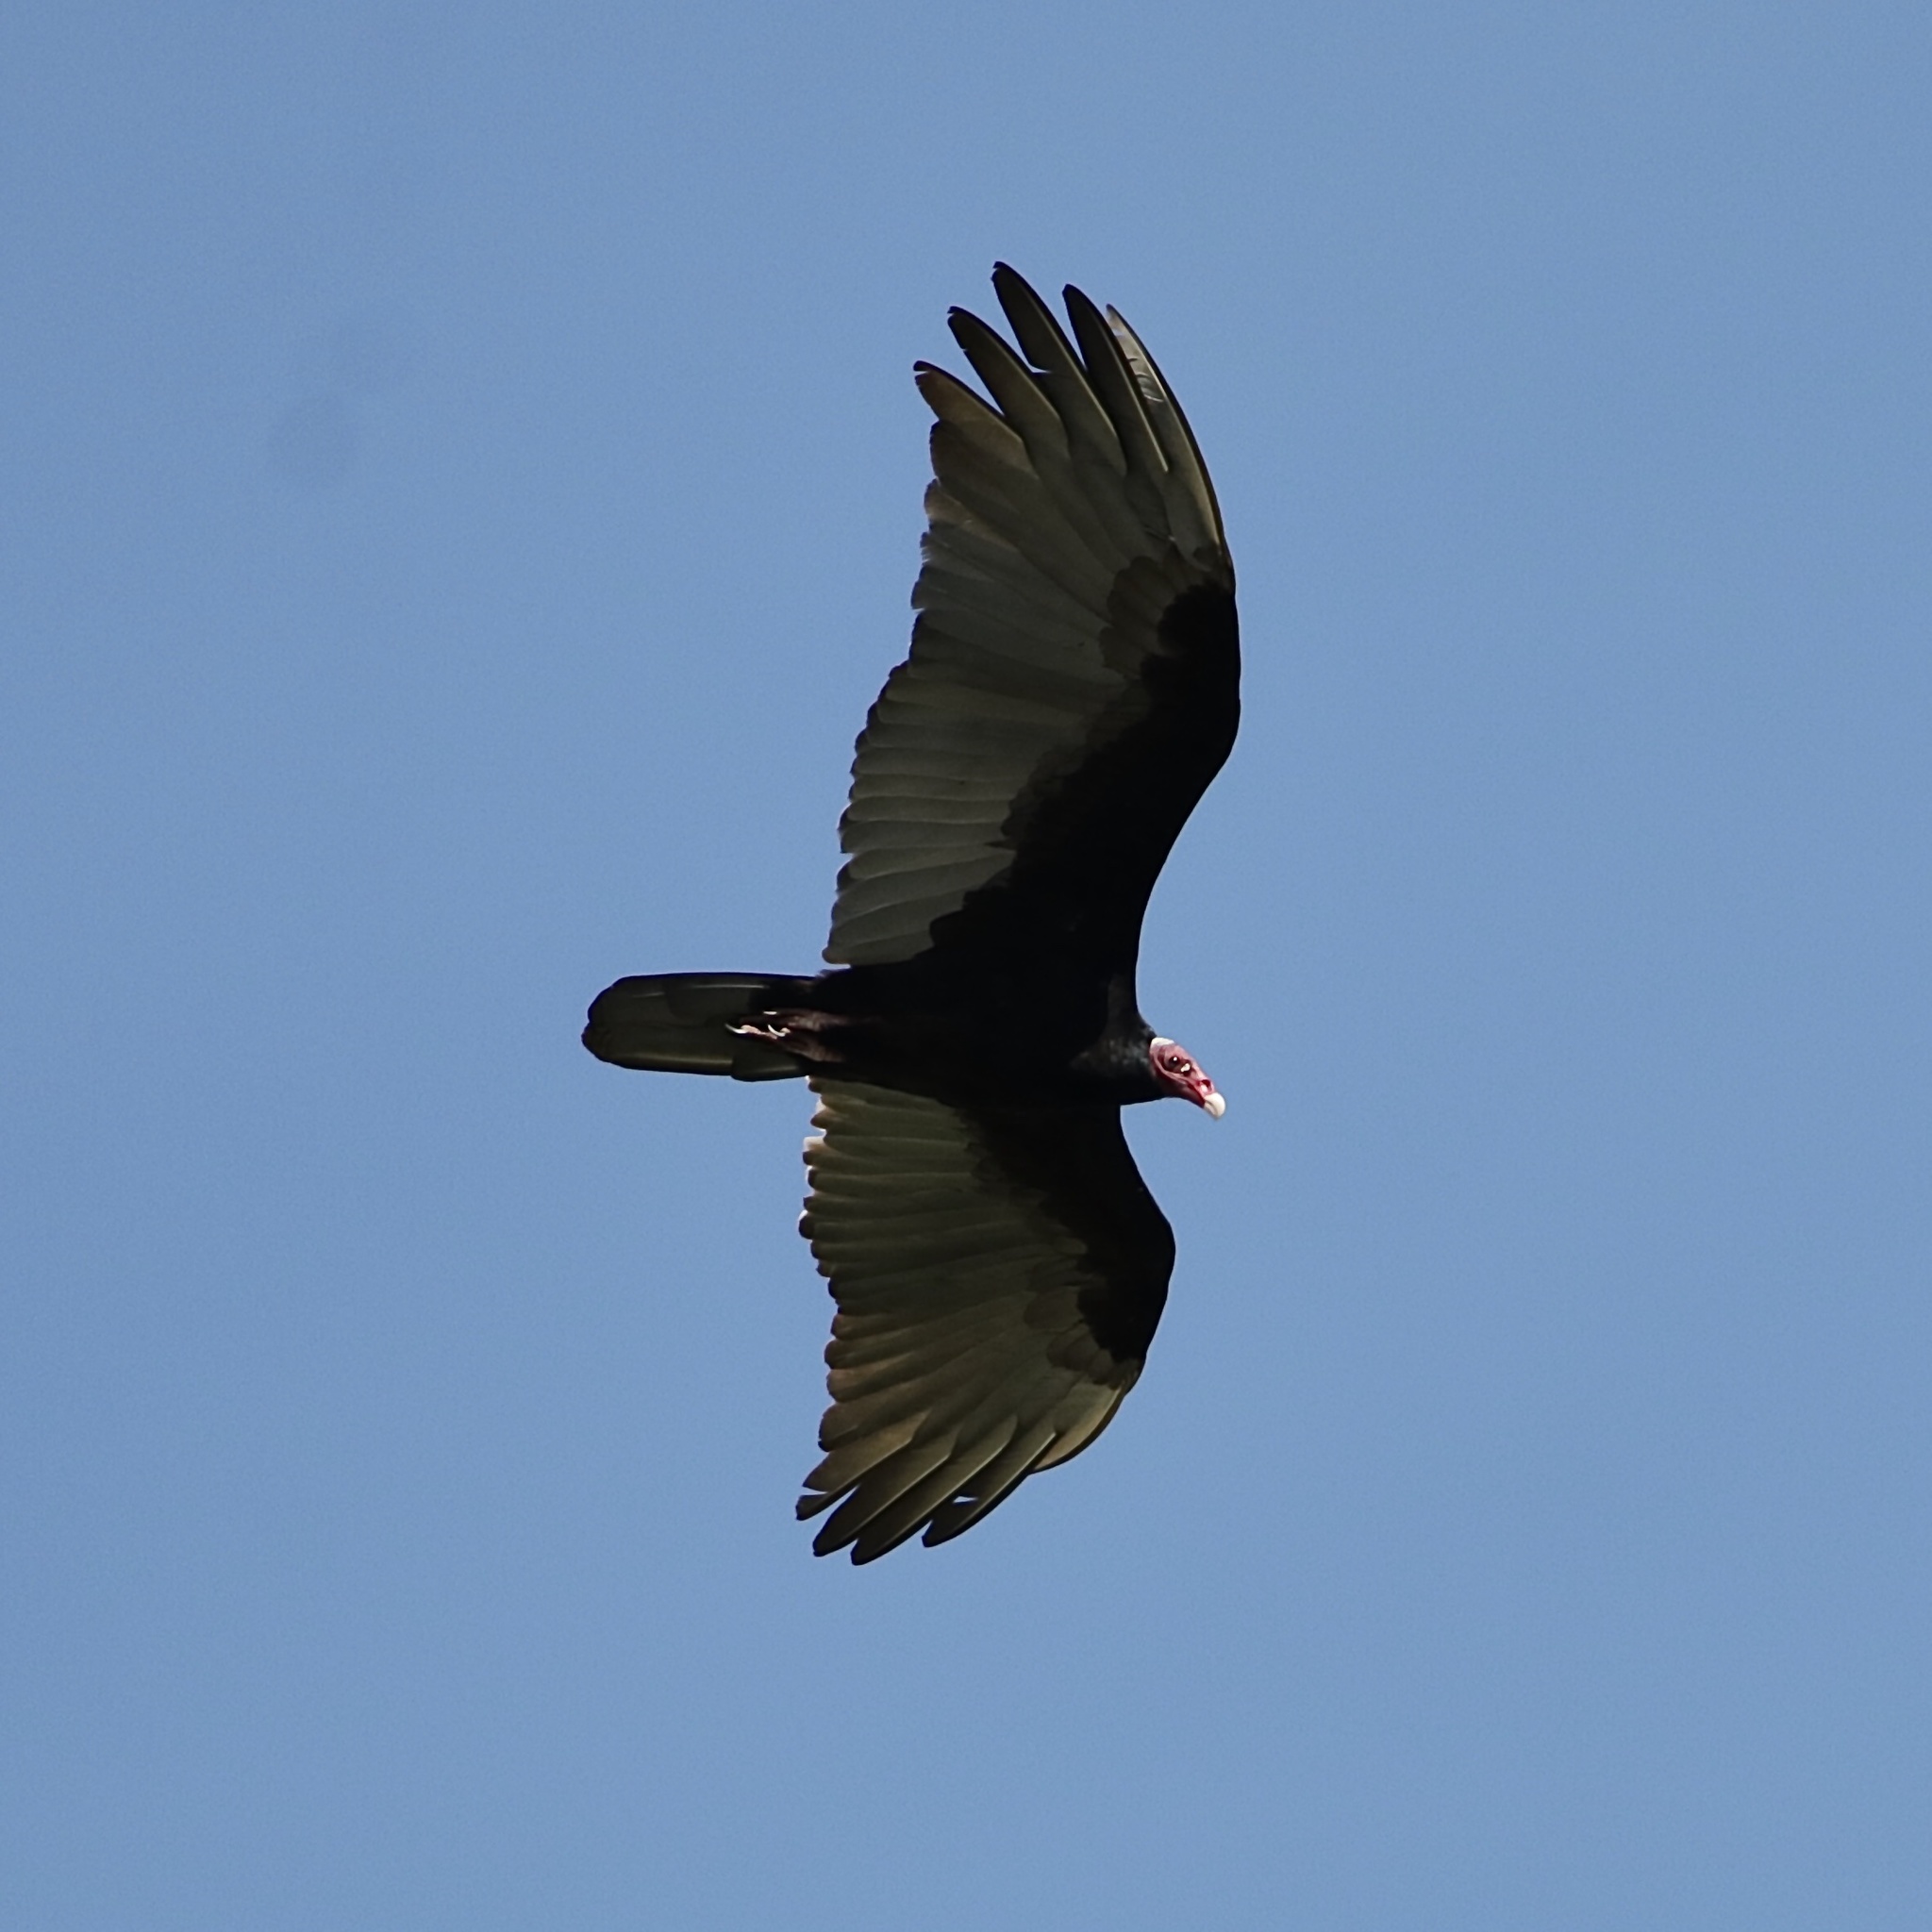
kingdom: Animalia
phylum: Chordata
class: Aves
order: Accipitriformes
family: Cathartidae
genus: Cathartes
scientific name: Cathartes aura
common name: Turkey vulture
